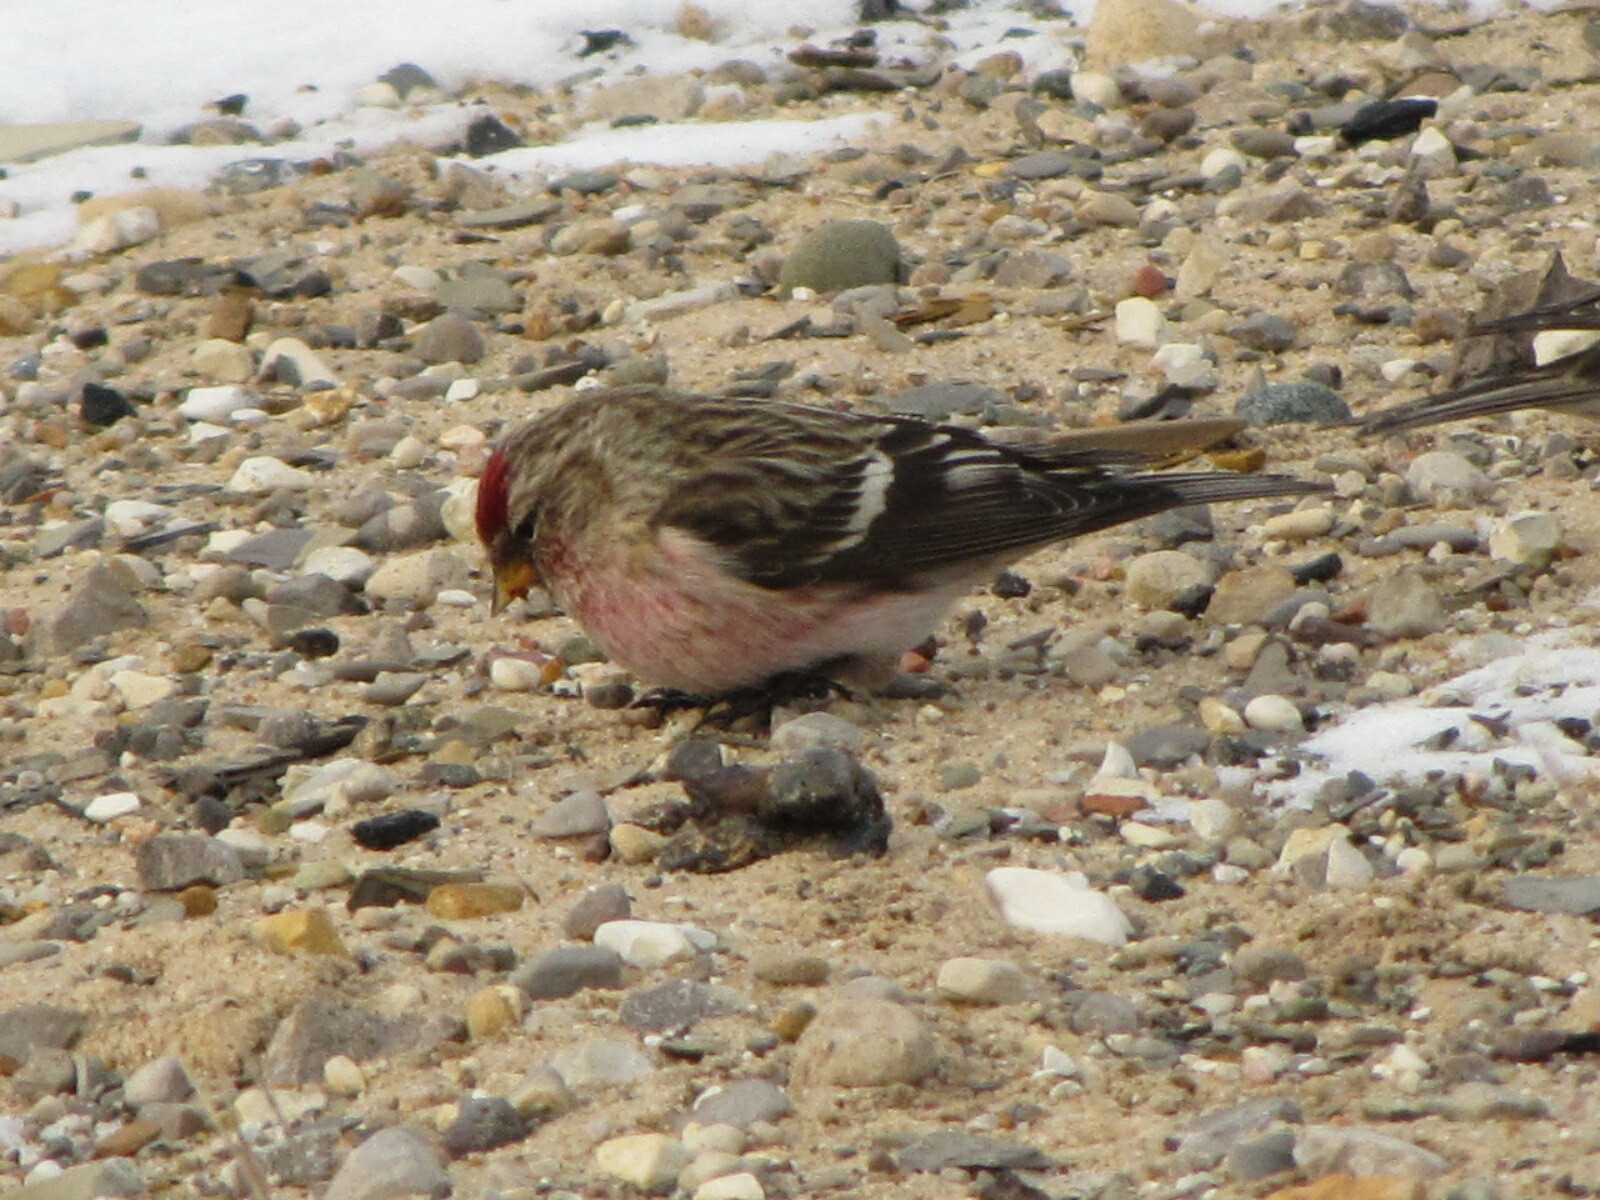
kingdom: Animalia
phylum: Chordata
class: Aves
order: Passeriformes
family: Fringillidae
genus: Acanthis
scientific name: Acanthis flammea
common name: Common redpoll
